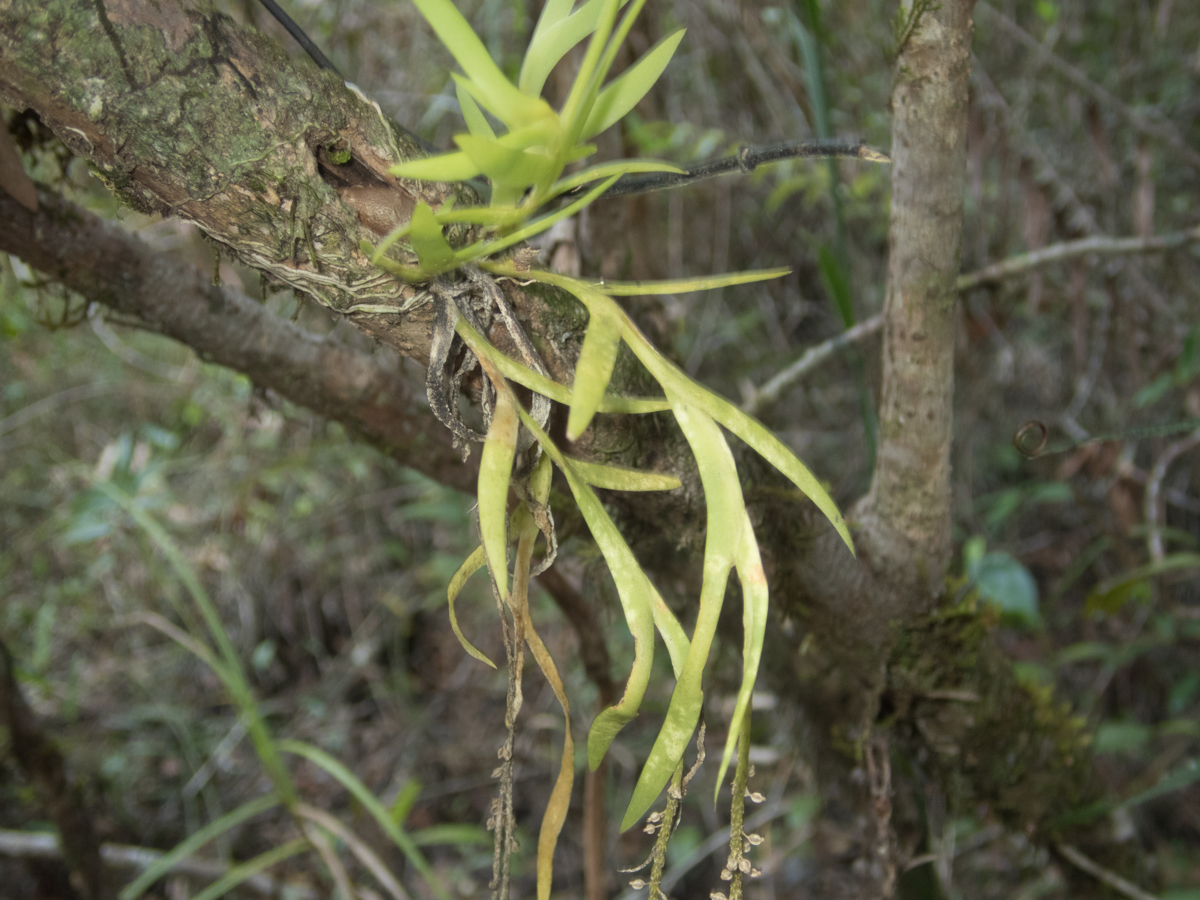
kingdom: Plantae
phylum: Tracheophyta
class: Liliopsida
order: Asparagales
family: Orchidaceae
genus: Oberonia
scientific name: Oberonia falcata
